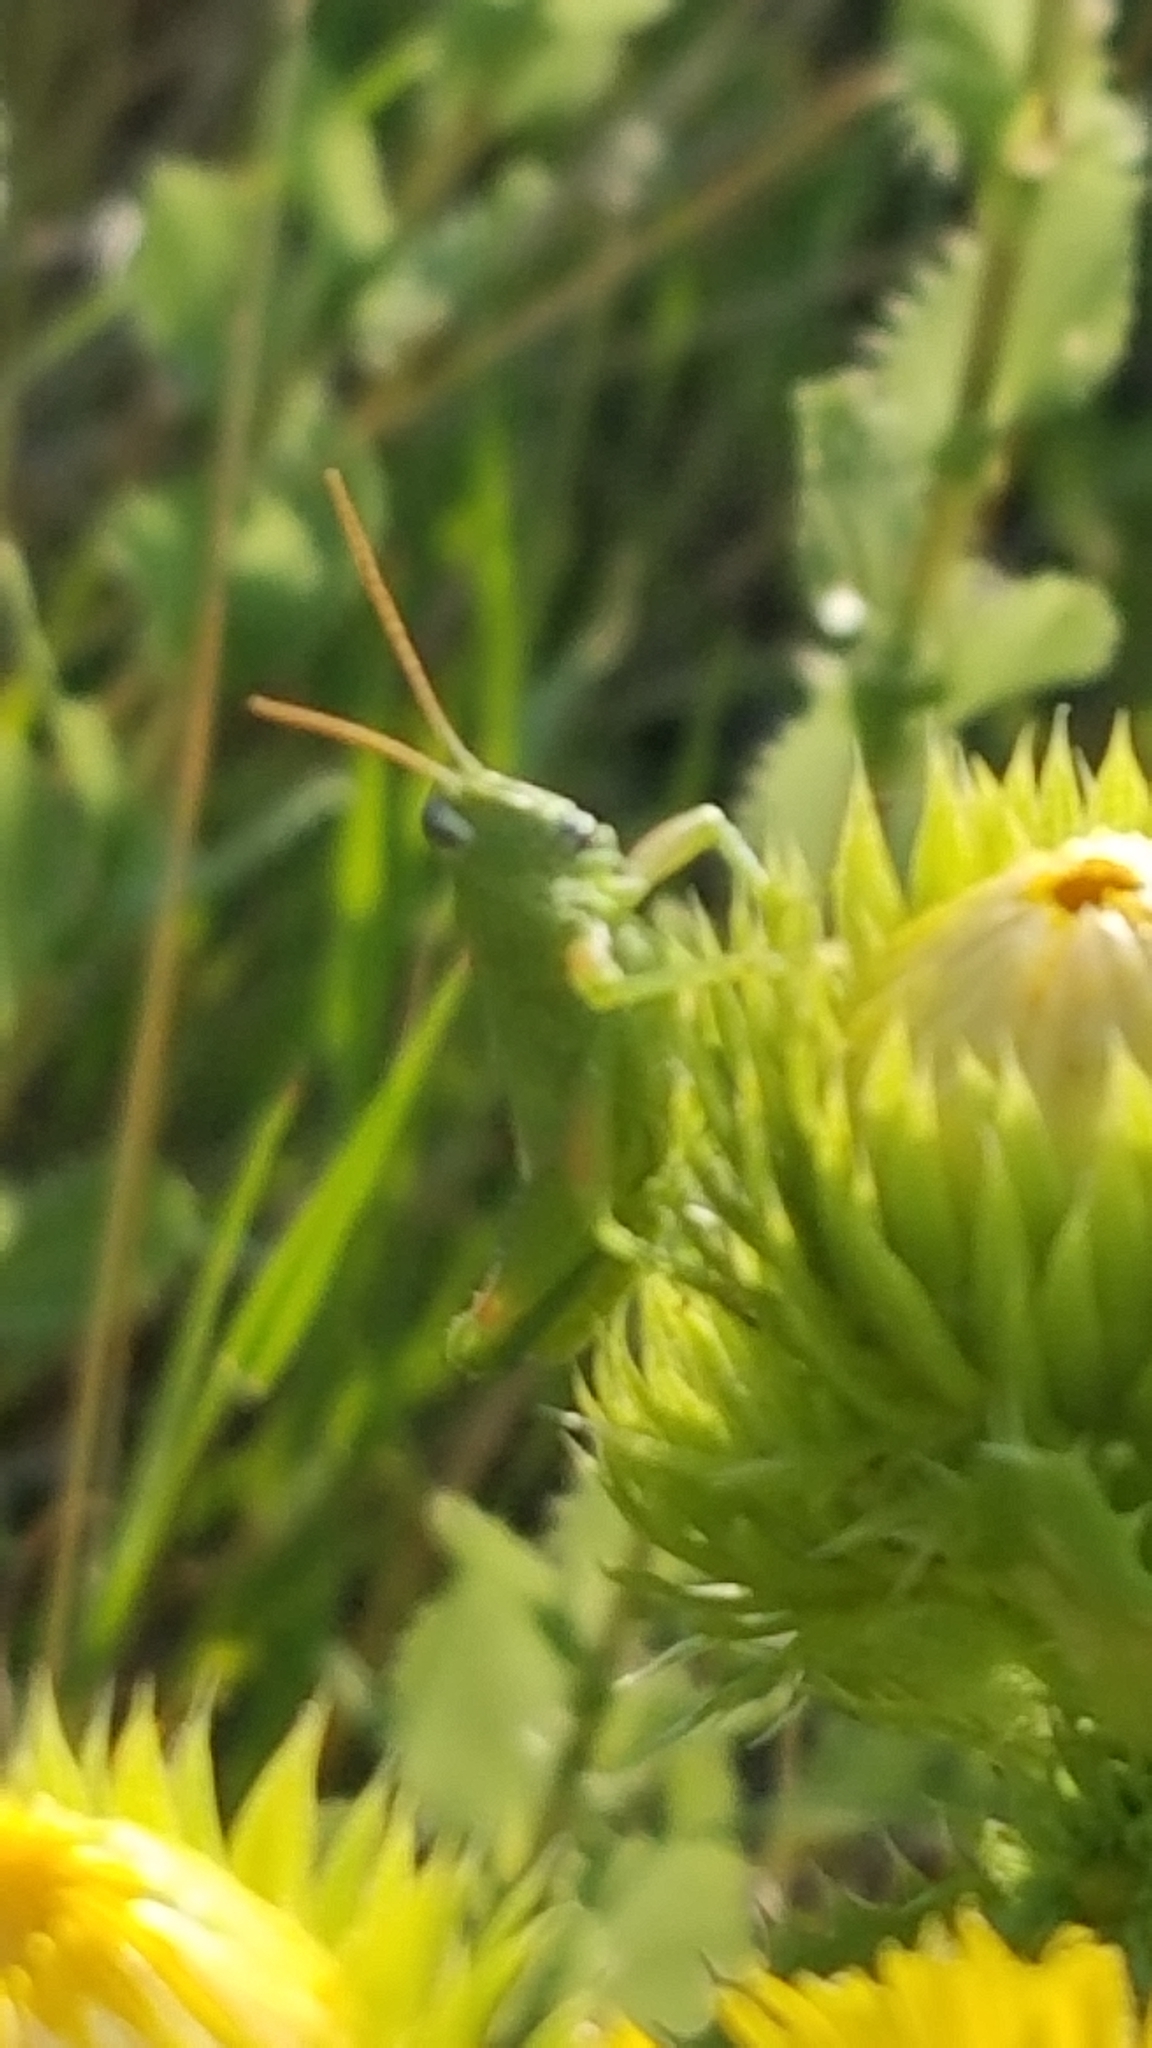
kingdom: Animalia
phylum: Arthropoda
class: Insecta
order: Orthoptera
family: Acrididae
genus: Hesperotettix
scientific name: Hesperotettix speciosus
